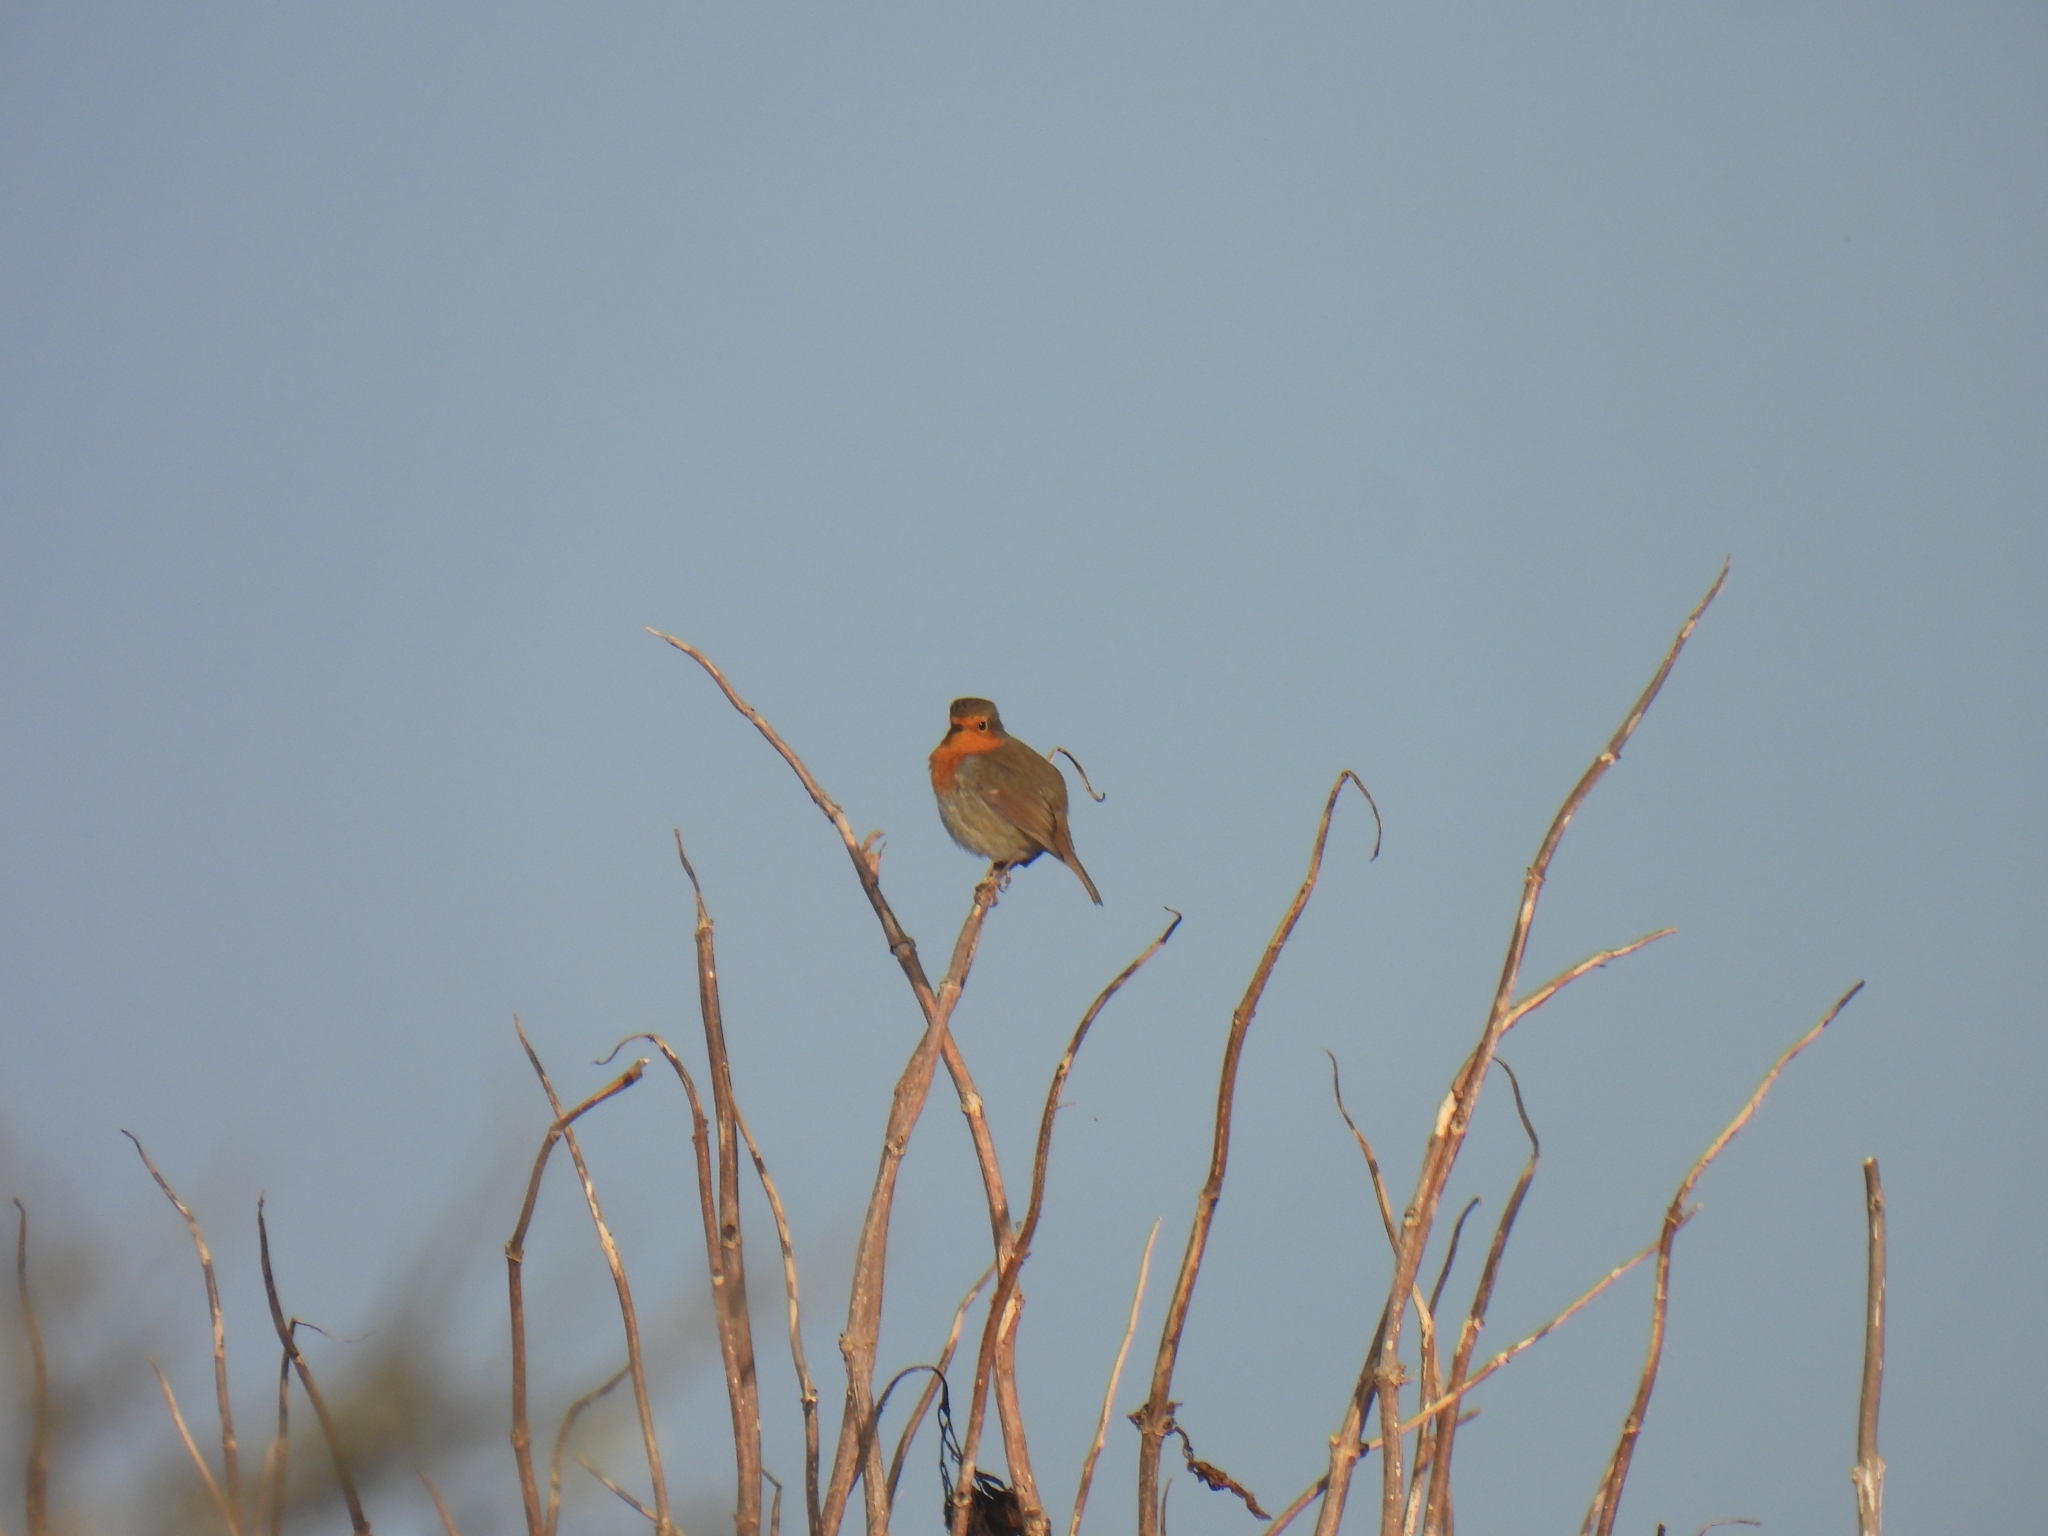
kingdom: Animalia
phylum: Chordata
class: Aves
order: Passeriformes
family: Muscicapidae
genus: Erithacus
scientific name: Erithacus rubecula
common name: European robin
